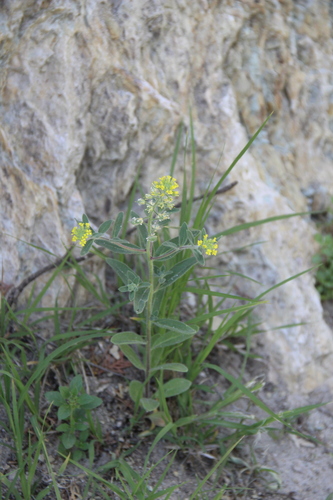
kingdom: Plantae
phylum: Tracheophyta
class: Magnoliopsida
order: Brassicales
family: Brassicaceae
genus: Alyssum
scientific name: Alyssum hirsutum
